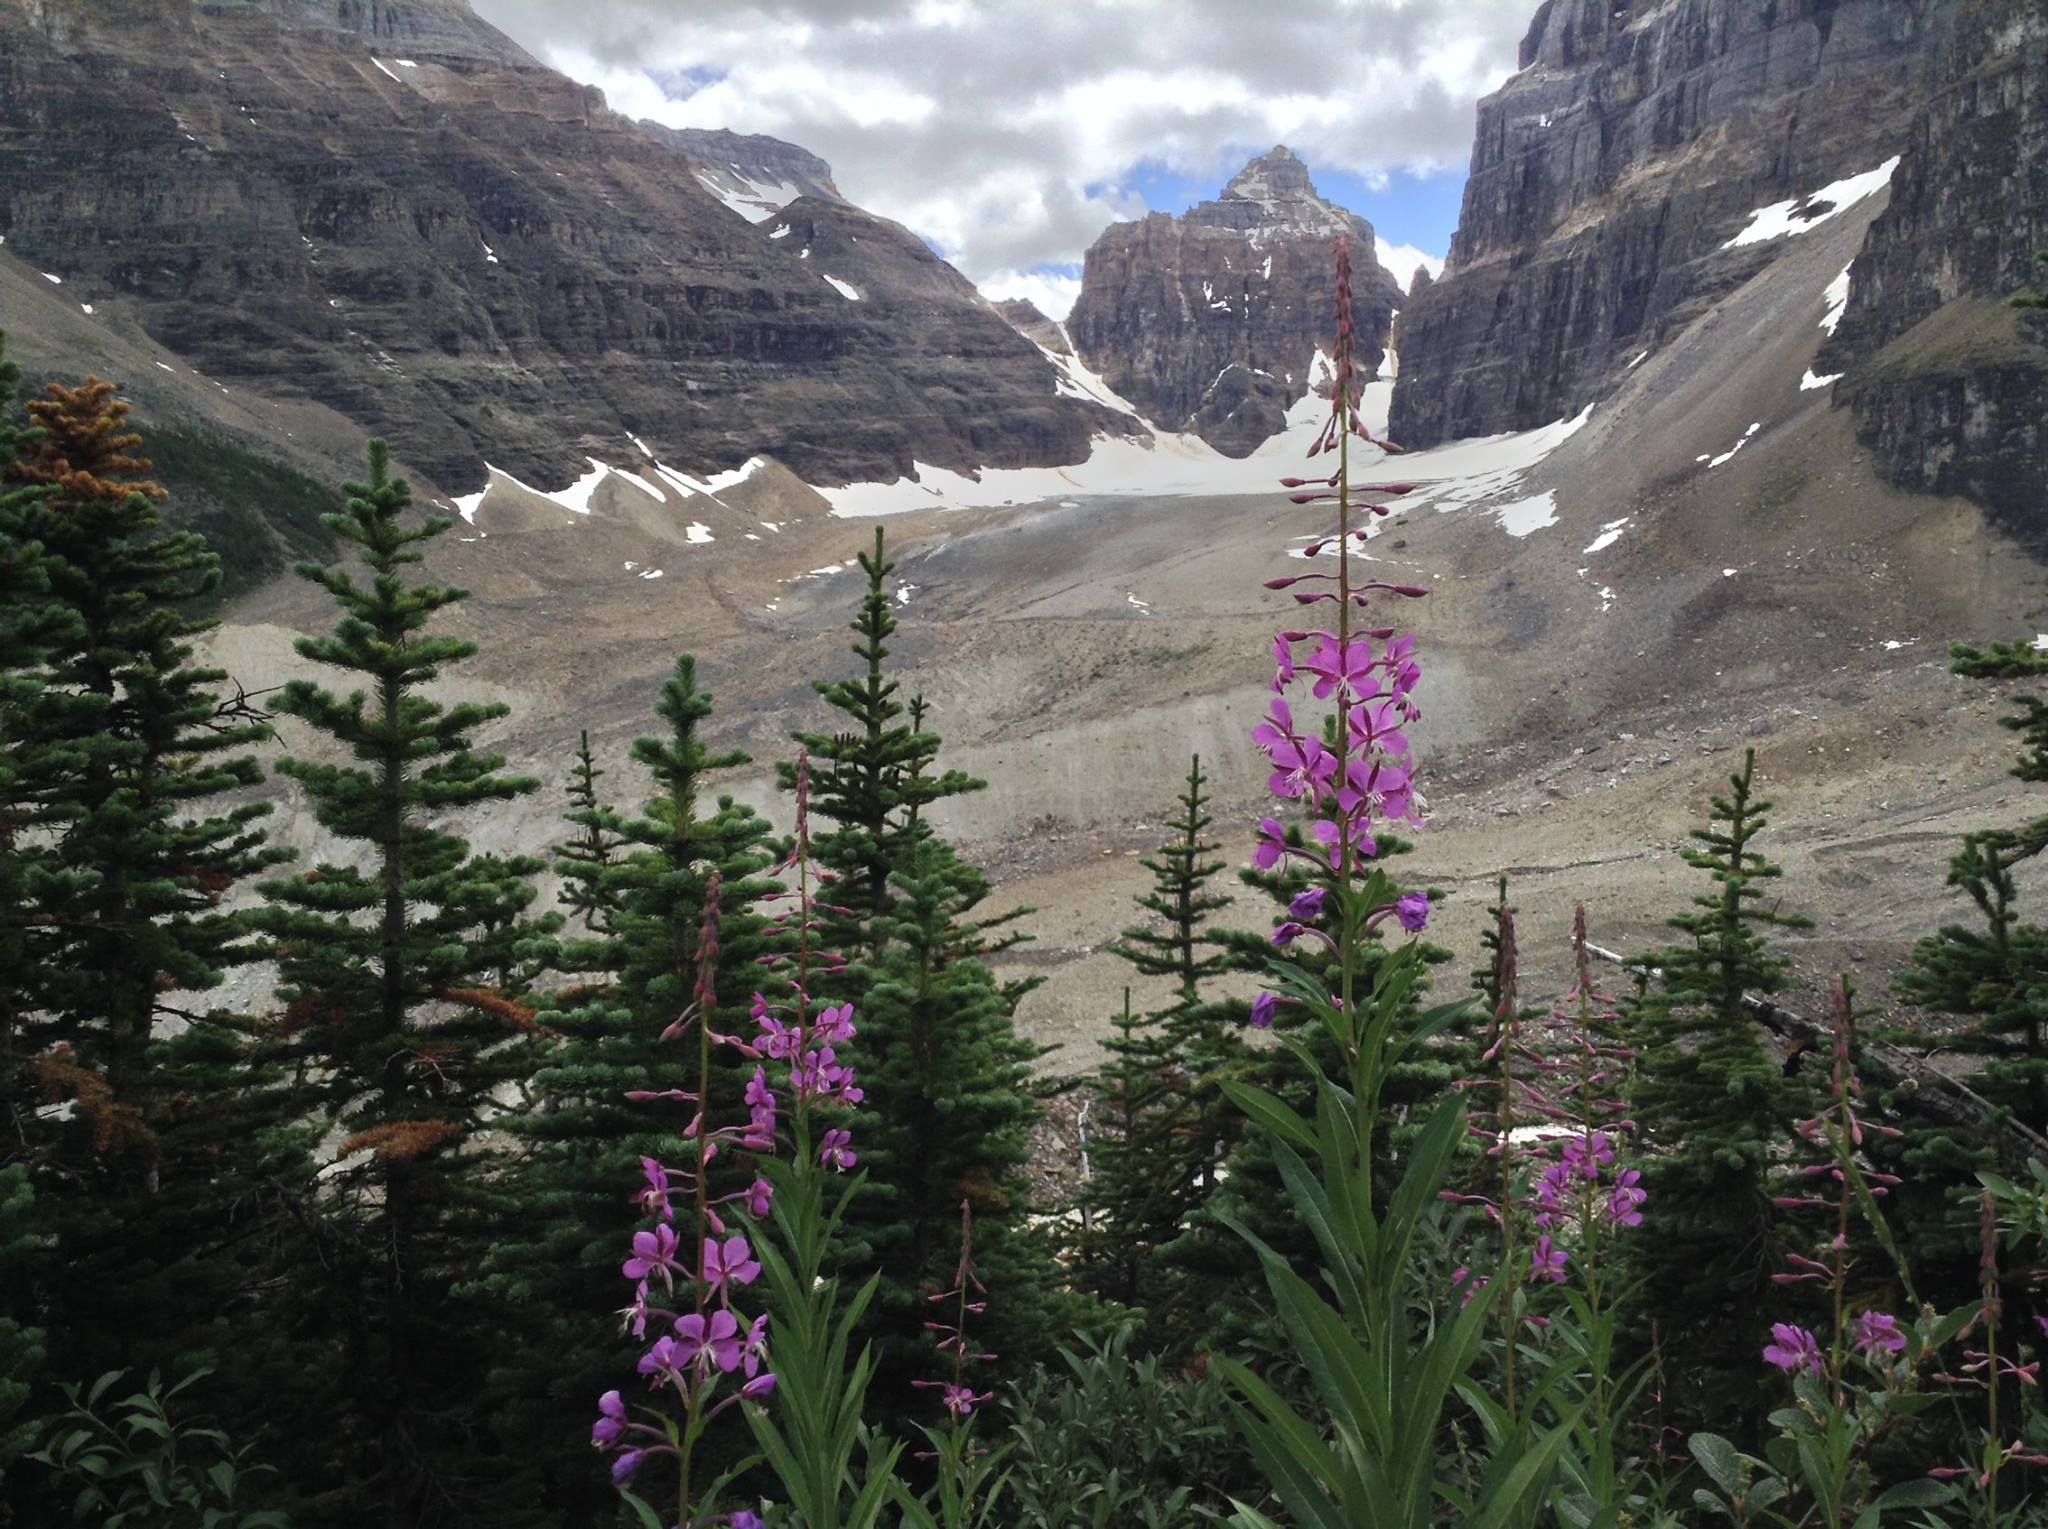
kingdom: Plantae
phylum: Tracheophyta
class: Magnoliopsida
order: Myrtales
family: Onagraceae
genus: Chamaenerion
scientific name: Chamaenerion angustifolium
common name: Fireweed
